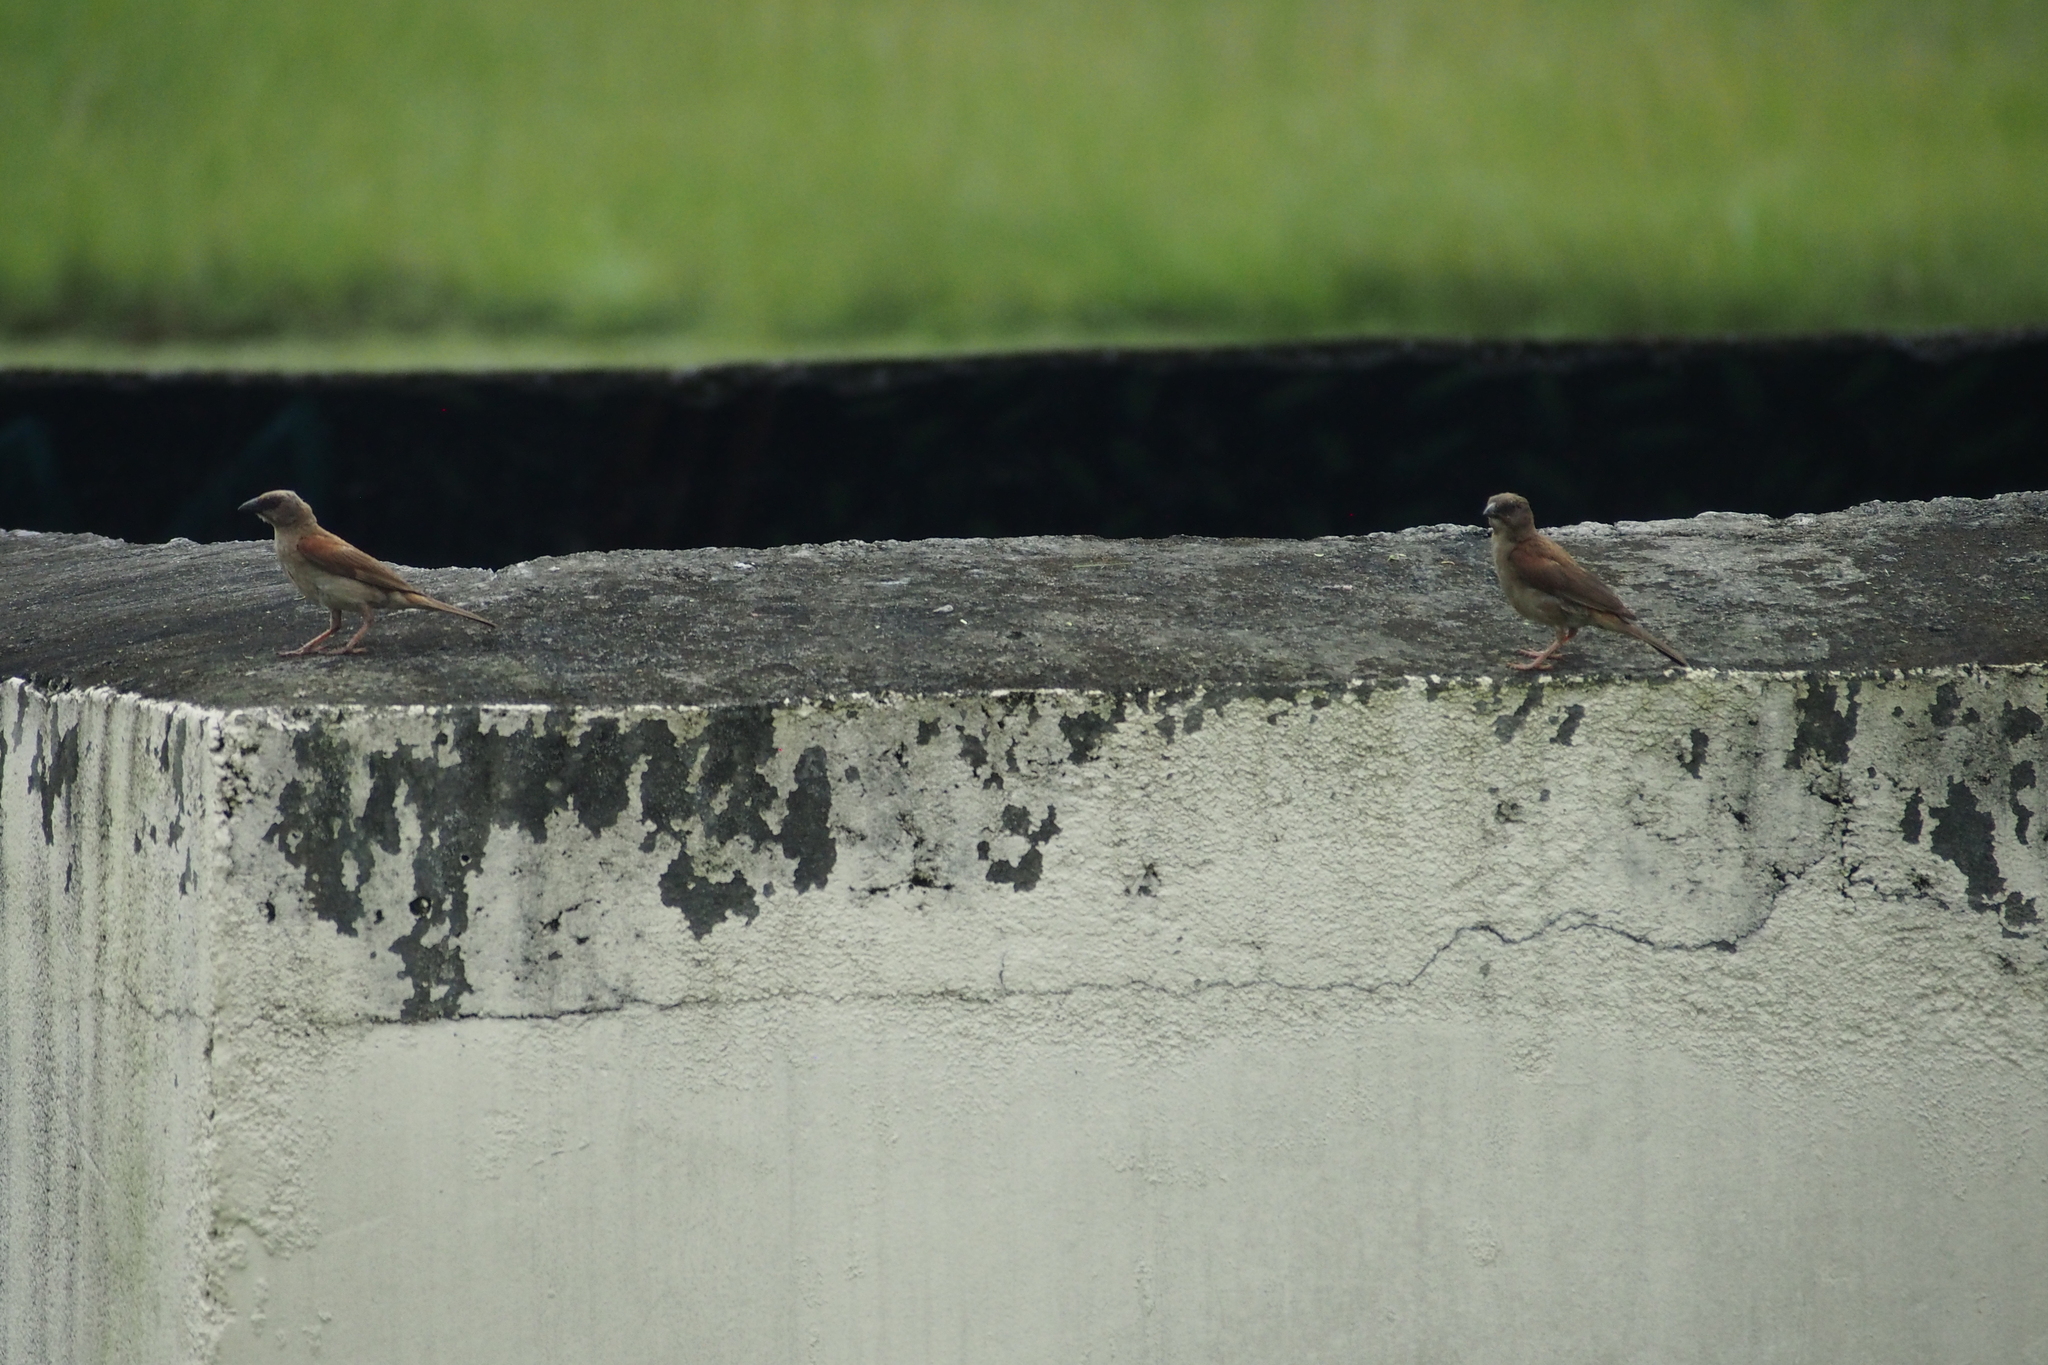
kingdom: Animalia
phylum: Chordata
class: Aves
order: Passeriformes
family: Passeridae
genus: Passer
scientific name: Passer griseus
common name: Northern grey-headed sparrow
